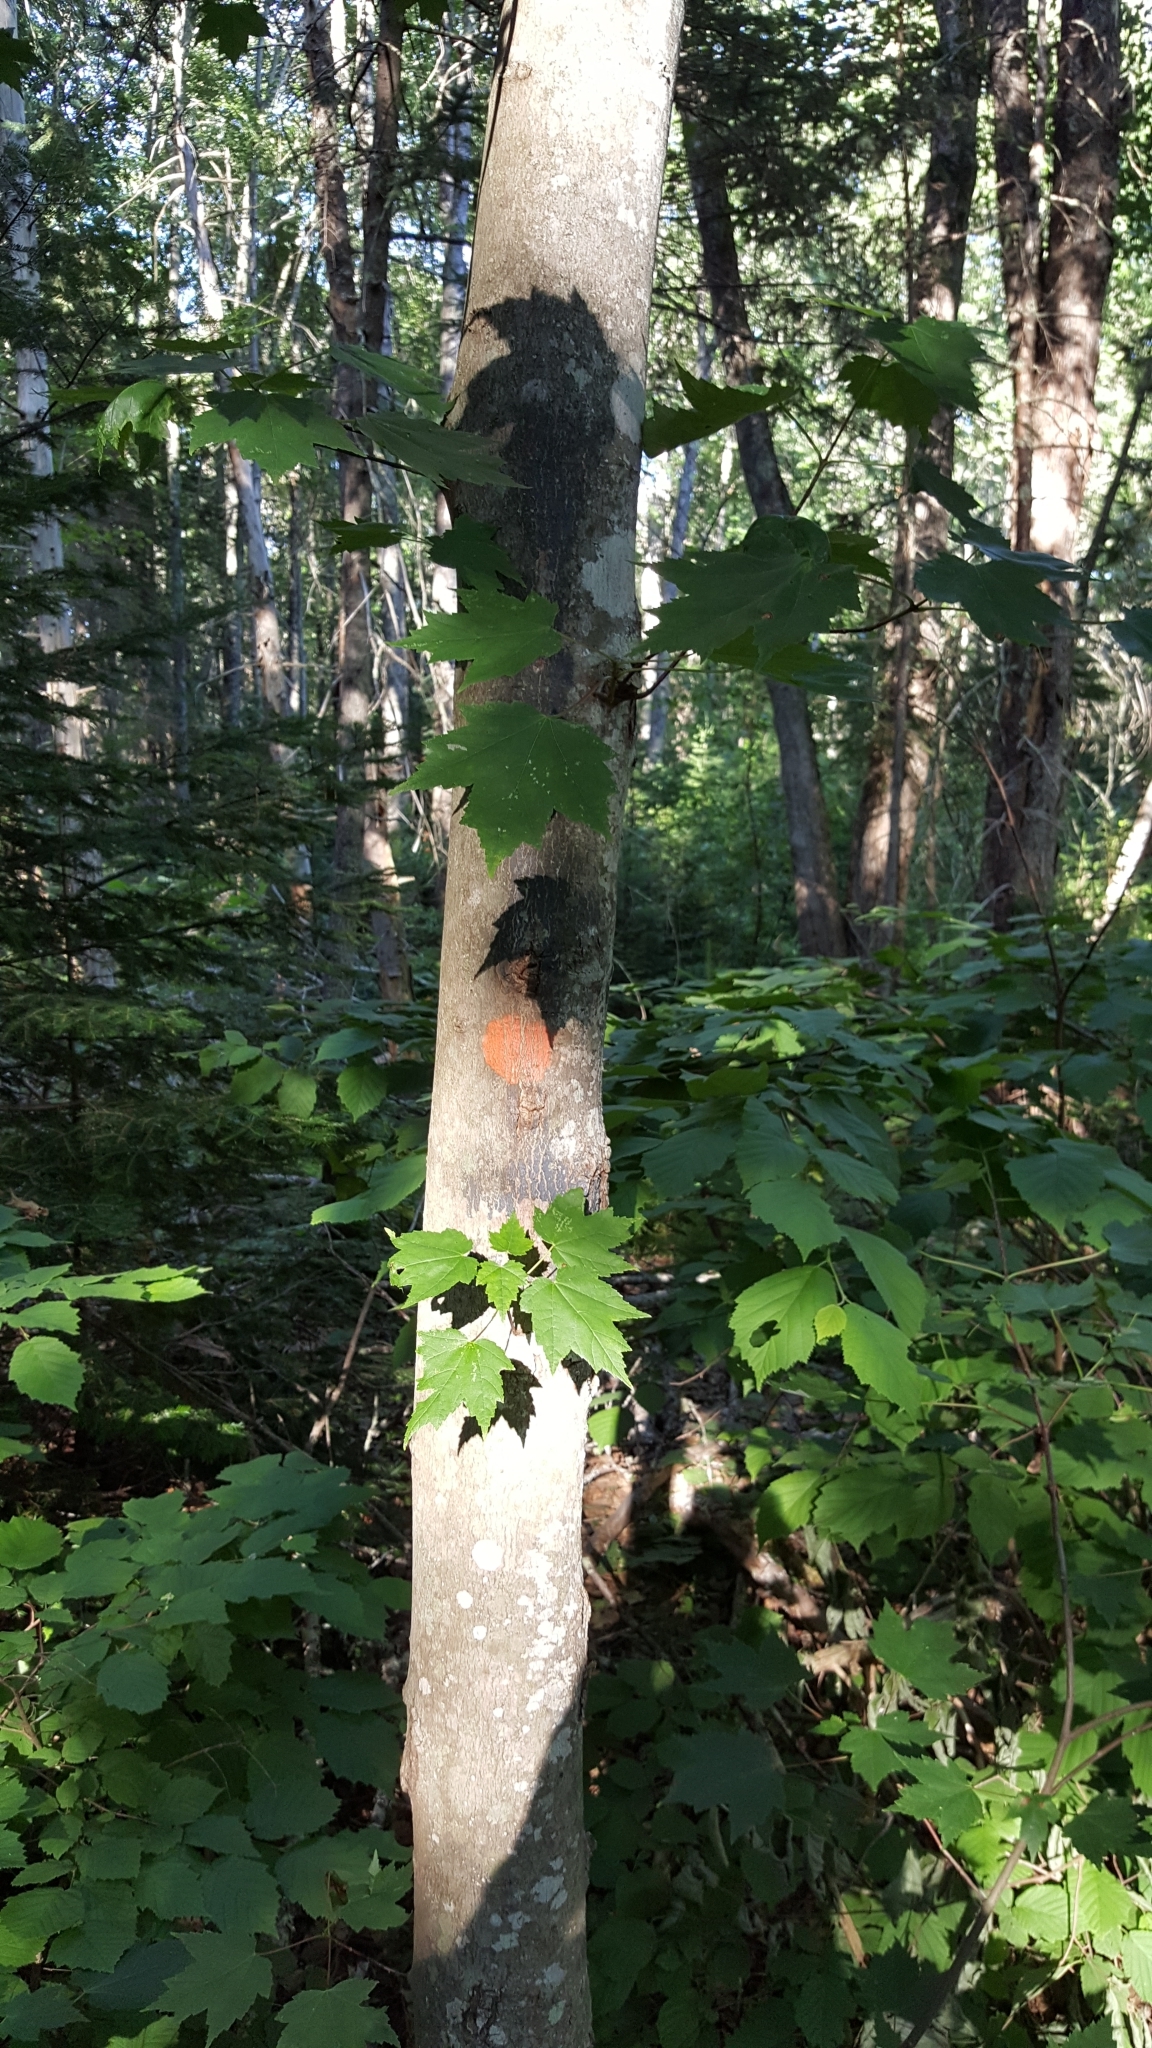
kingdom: Plantae
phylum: Tracheophyta
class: Magnoliopsida
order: Sapindales
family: Sapindaceae
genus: Acer
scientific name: Acer rubrum
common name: Red maple
